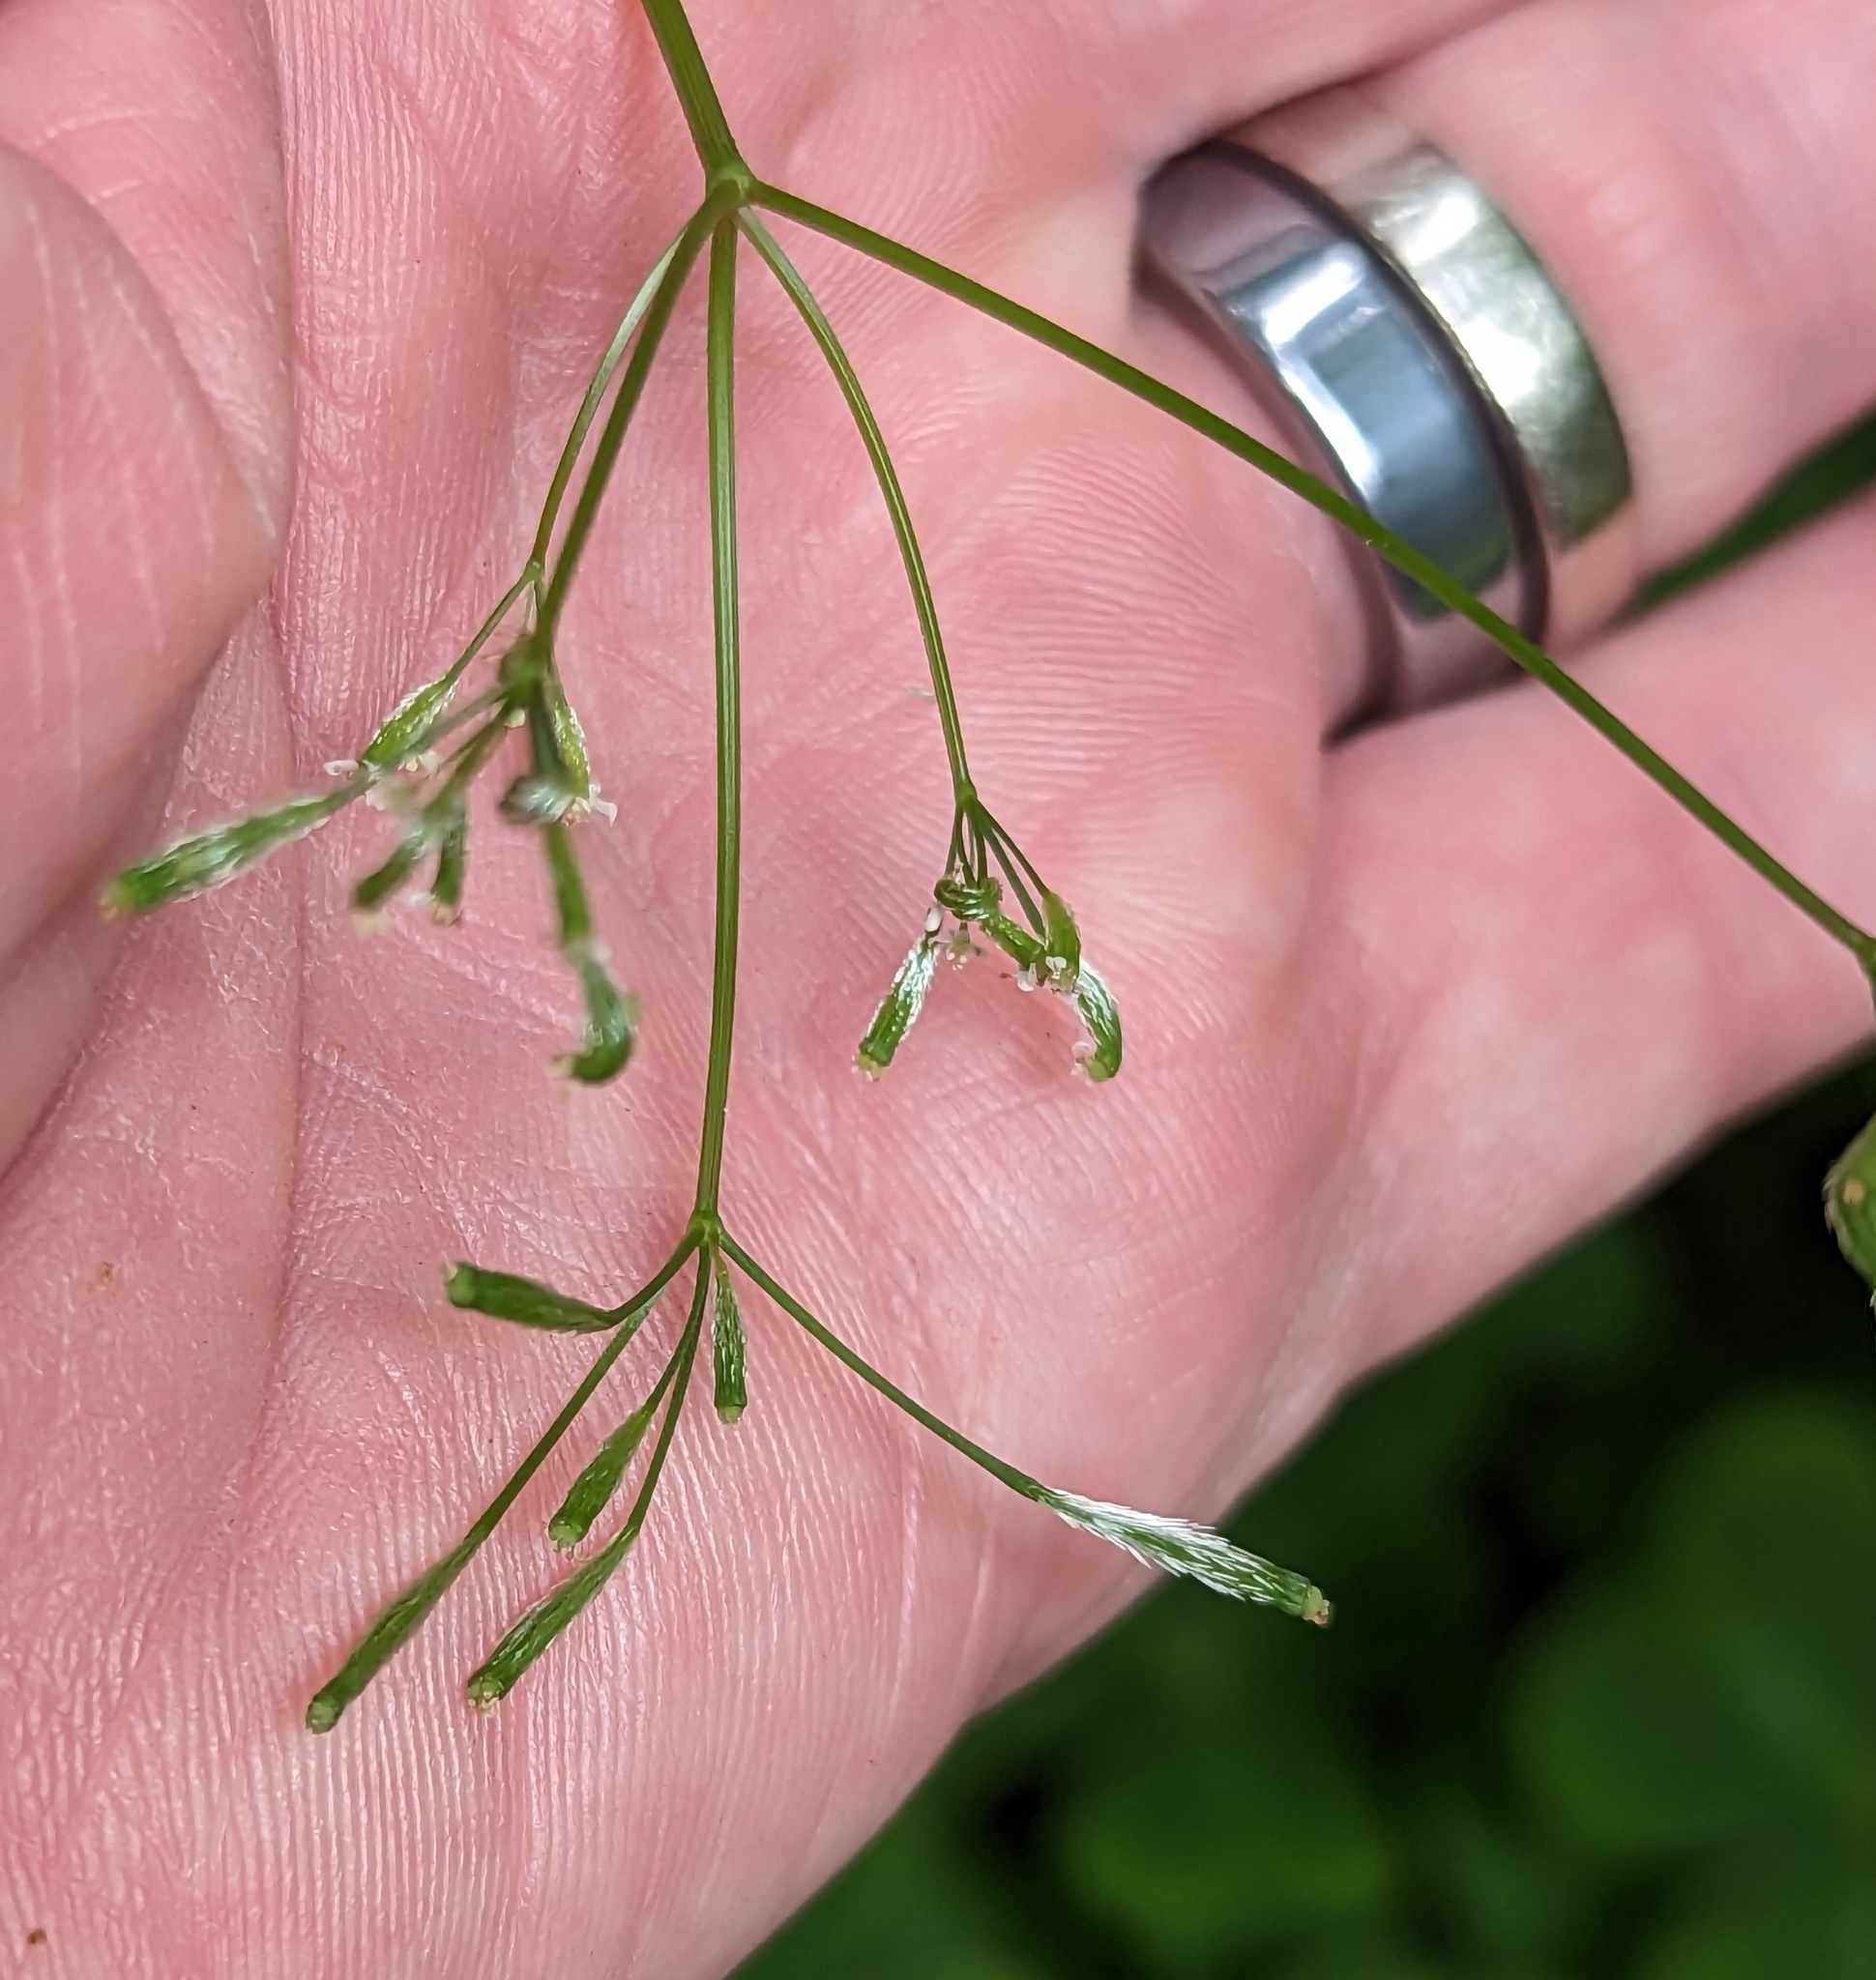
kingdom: Plantae
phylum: Tracheophyta
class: Magnoliopsida
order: Apiales
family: Apiaceae
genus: Osmorhiza
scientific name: Osmorhiza berteroi
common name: Mountain sweet cicely
